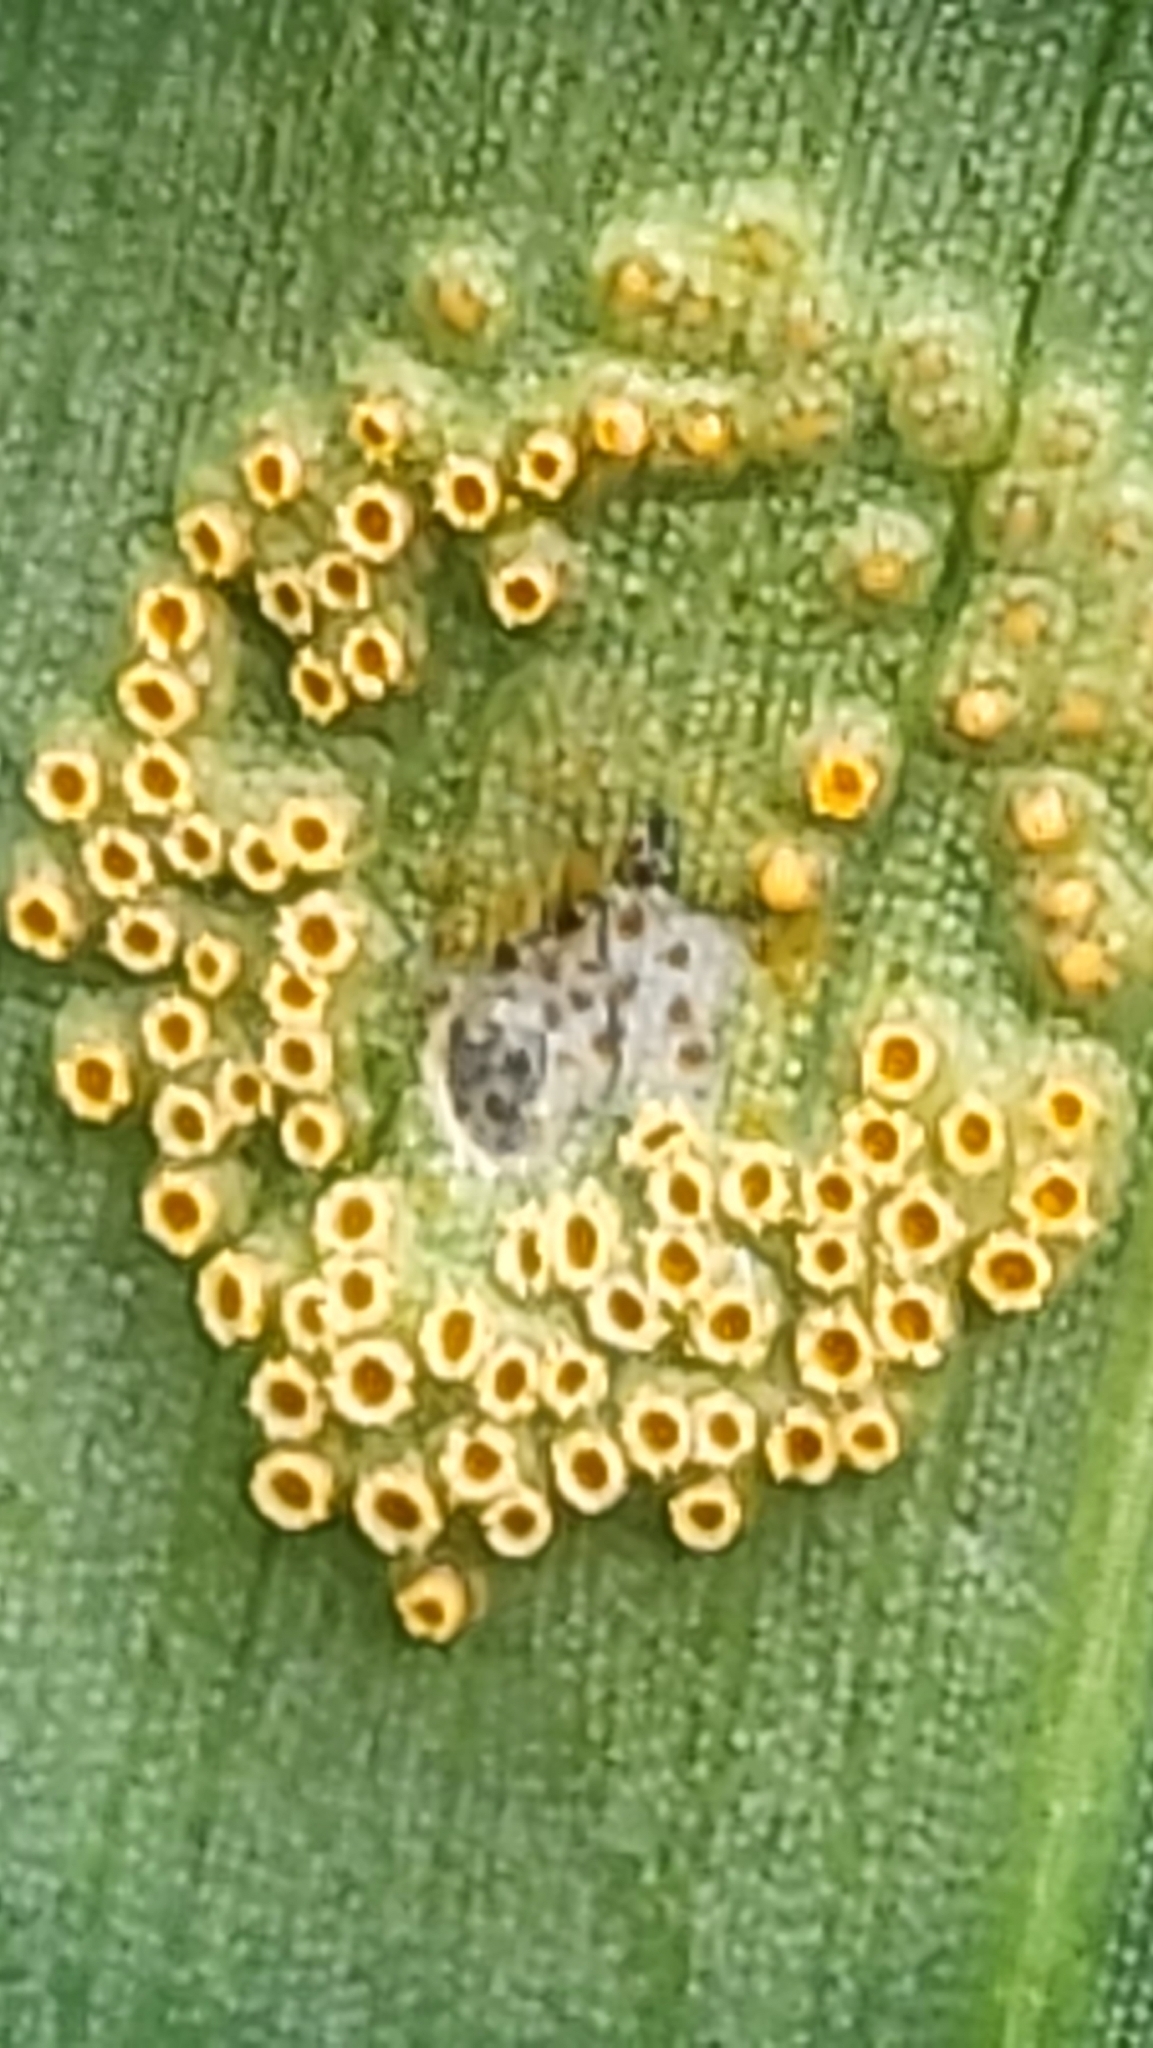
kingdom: Fungi
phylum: Basidiomycota
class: Pucciniomycetes
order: Pucciniales
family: Pucciniaceae
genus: Puccinia
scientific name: Puccinia sessilis
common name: Arum rust
